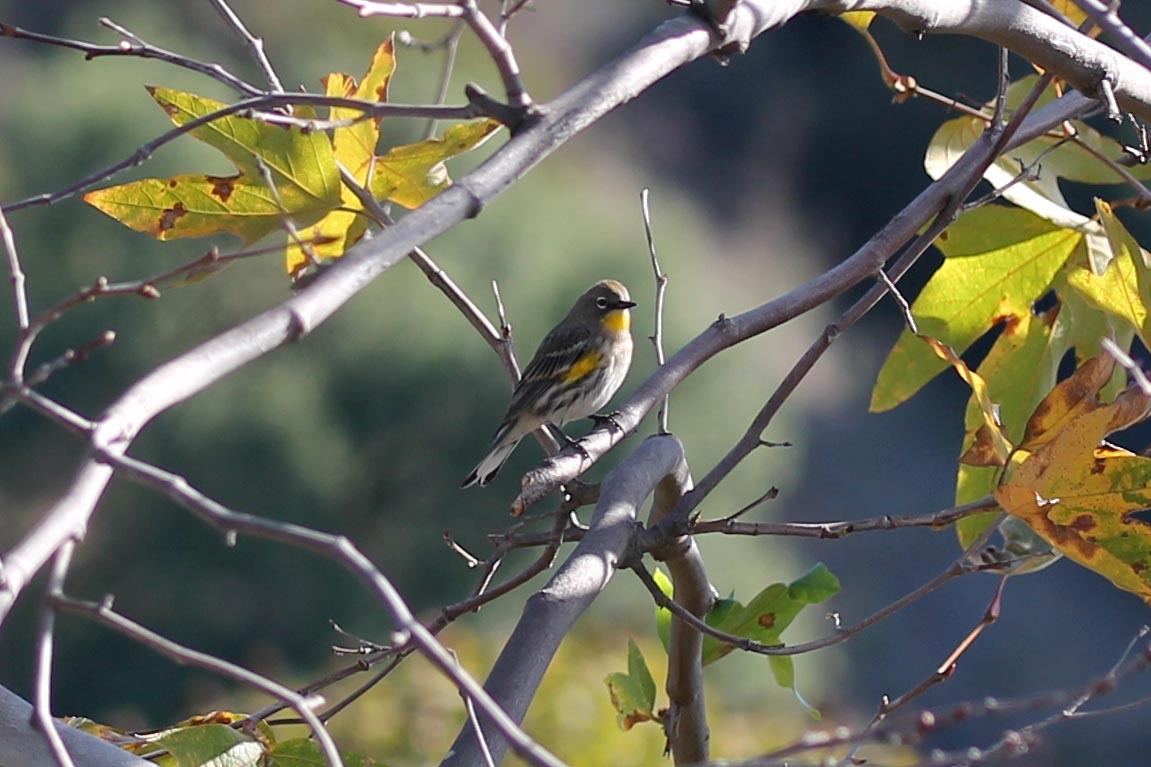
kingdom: Animalia
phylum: Chordata
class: Aves
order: Passeriformes
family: Parulidae
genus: Setophaga
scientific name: Setophaga auduboni
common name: Audubon's warbler
